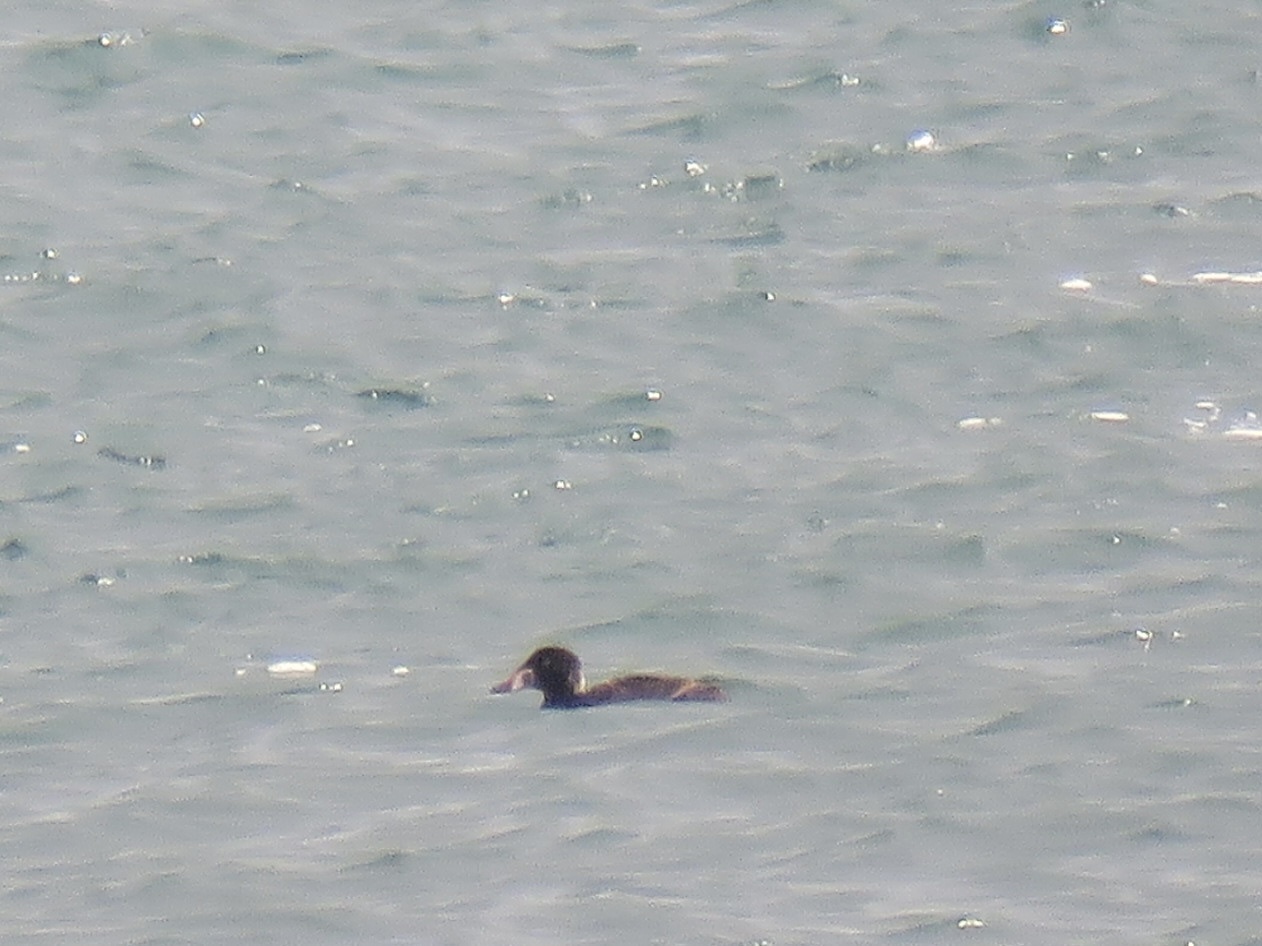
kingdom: Animalia
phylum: Chordata
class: Aves
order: Anseriformes
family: Anatidae
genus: Melanitta
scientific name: Melanitta perspicillata
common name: Surf scoter
